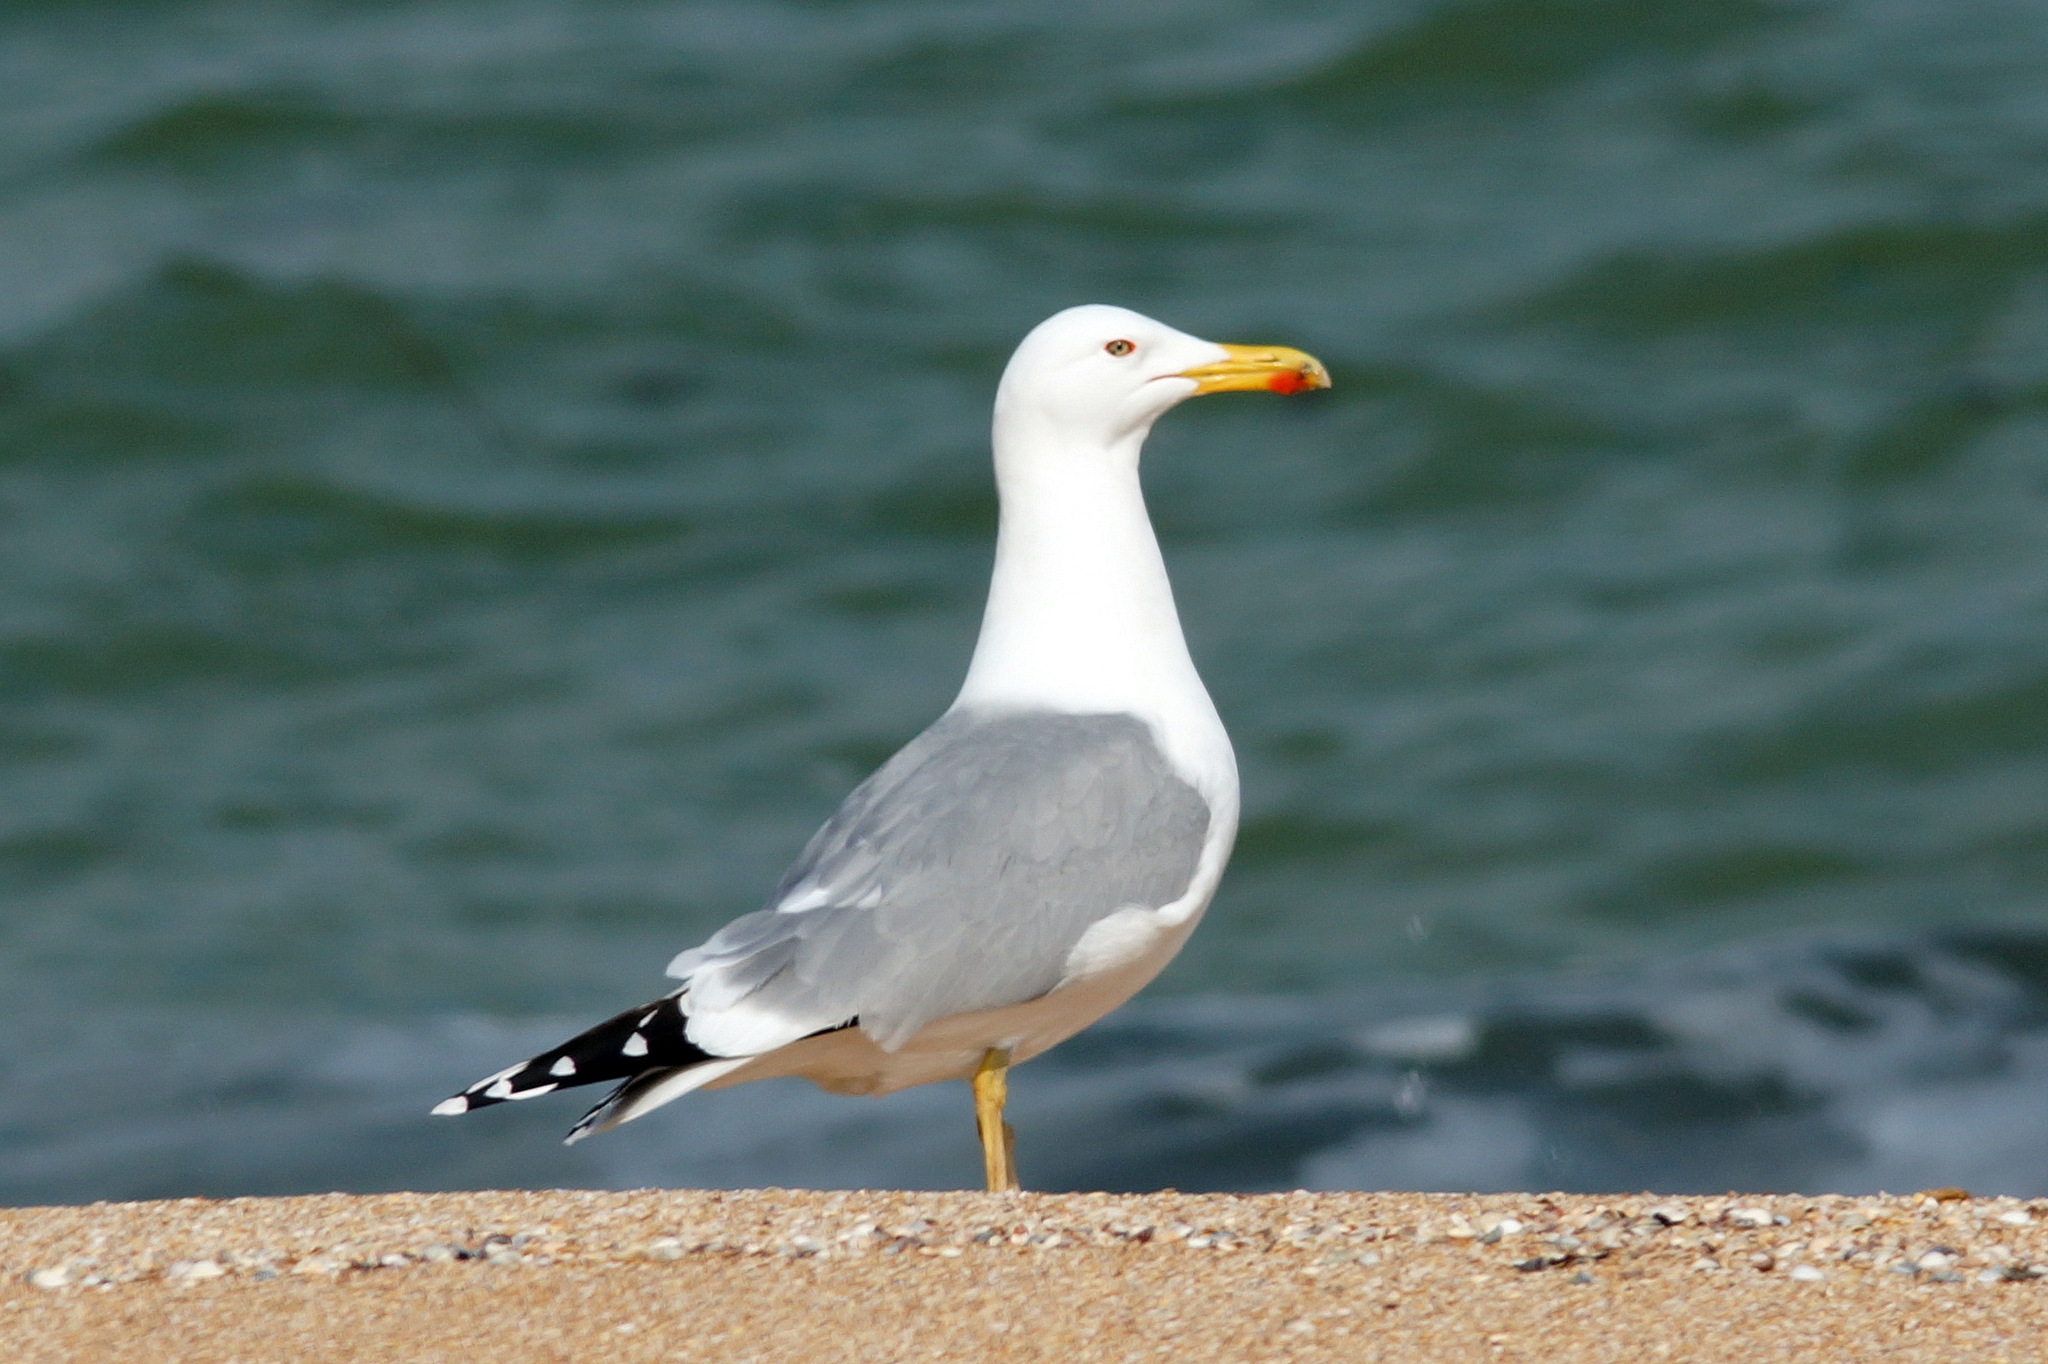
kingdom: Animalia
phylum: Chordata
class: Aves
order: Charadriiformes
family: Laridae
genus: Larus
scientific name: Larus cachinnans
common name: Caspian gull
